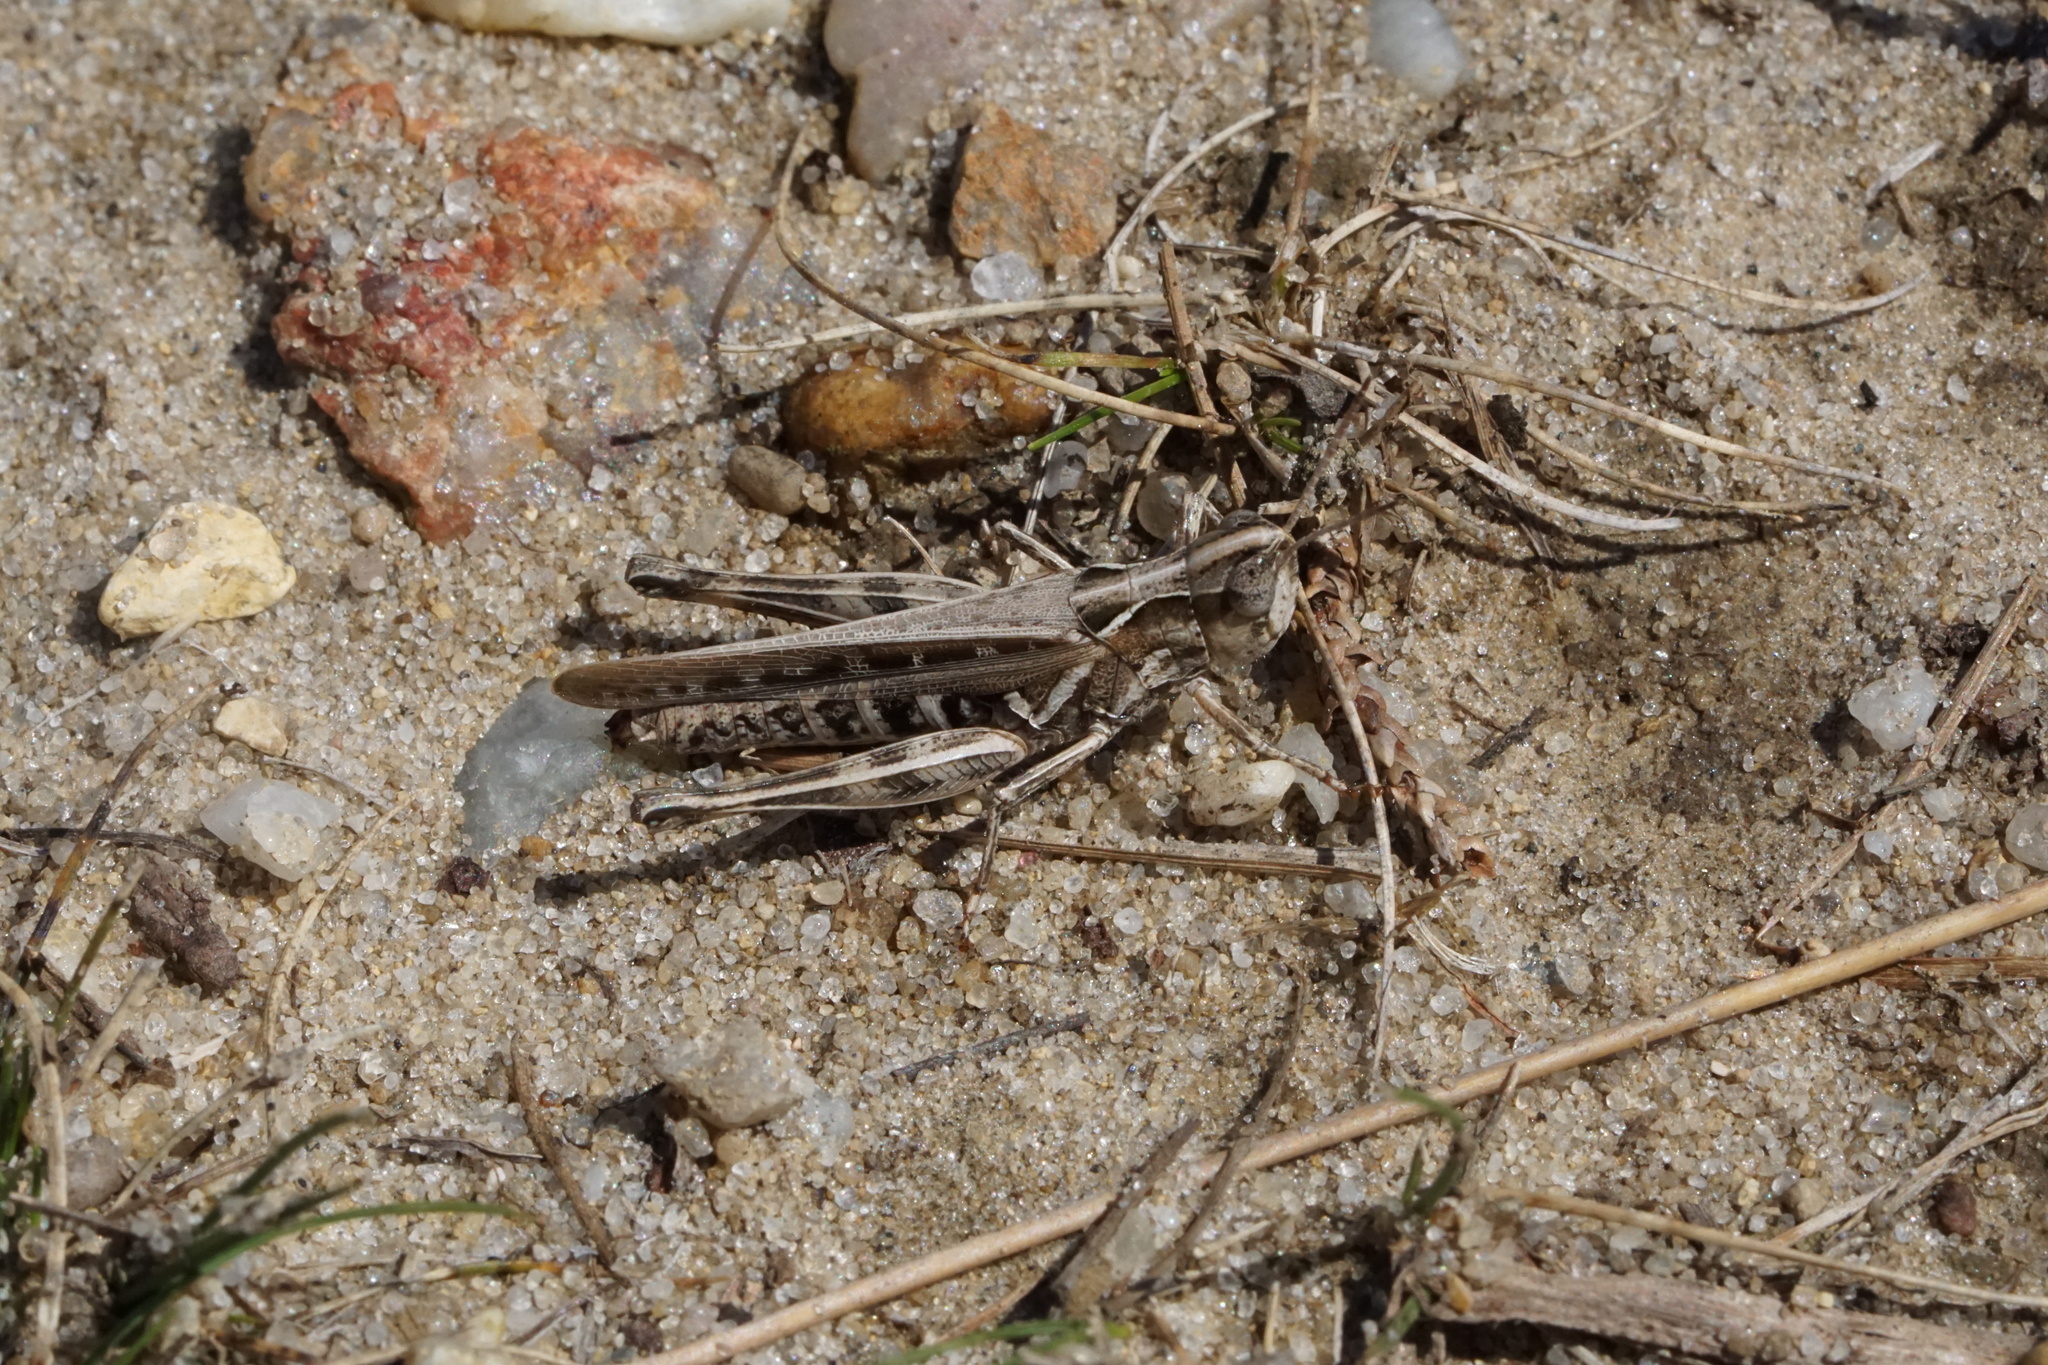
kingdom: Animalia
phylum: Arthropoda
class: Insecta
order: Orthoptera
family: Acrididae
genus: Orphulella
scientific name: Orphulella pelidna
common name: Spotted-wing grasshopper
